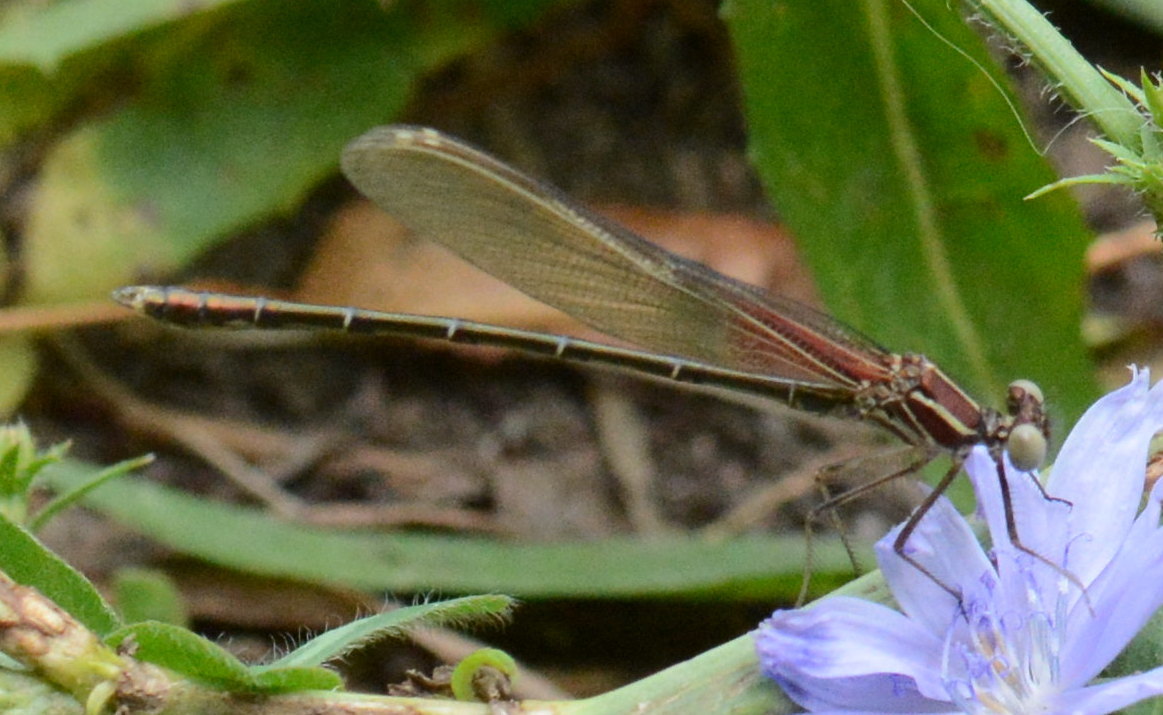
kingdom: Animalia
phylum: Arthropoda
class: Insecta
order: Odonata
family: Calopterygidae
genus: Hetaerina
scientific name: Hetaerina americana
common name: American rubyspot
